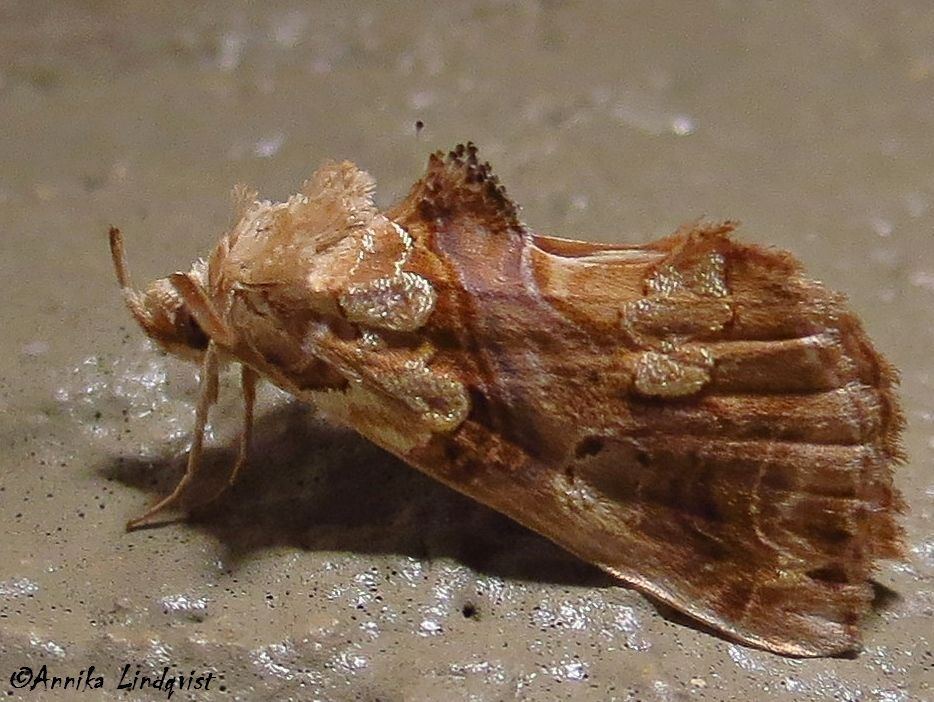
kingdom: Animalia
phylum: Arthropoda
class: Insecta
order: Lepidoptera
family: Erebidae
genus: Plusiodonta
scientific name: Plusiodonta compressipalpis
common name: Moonseed moth
